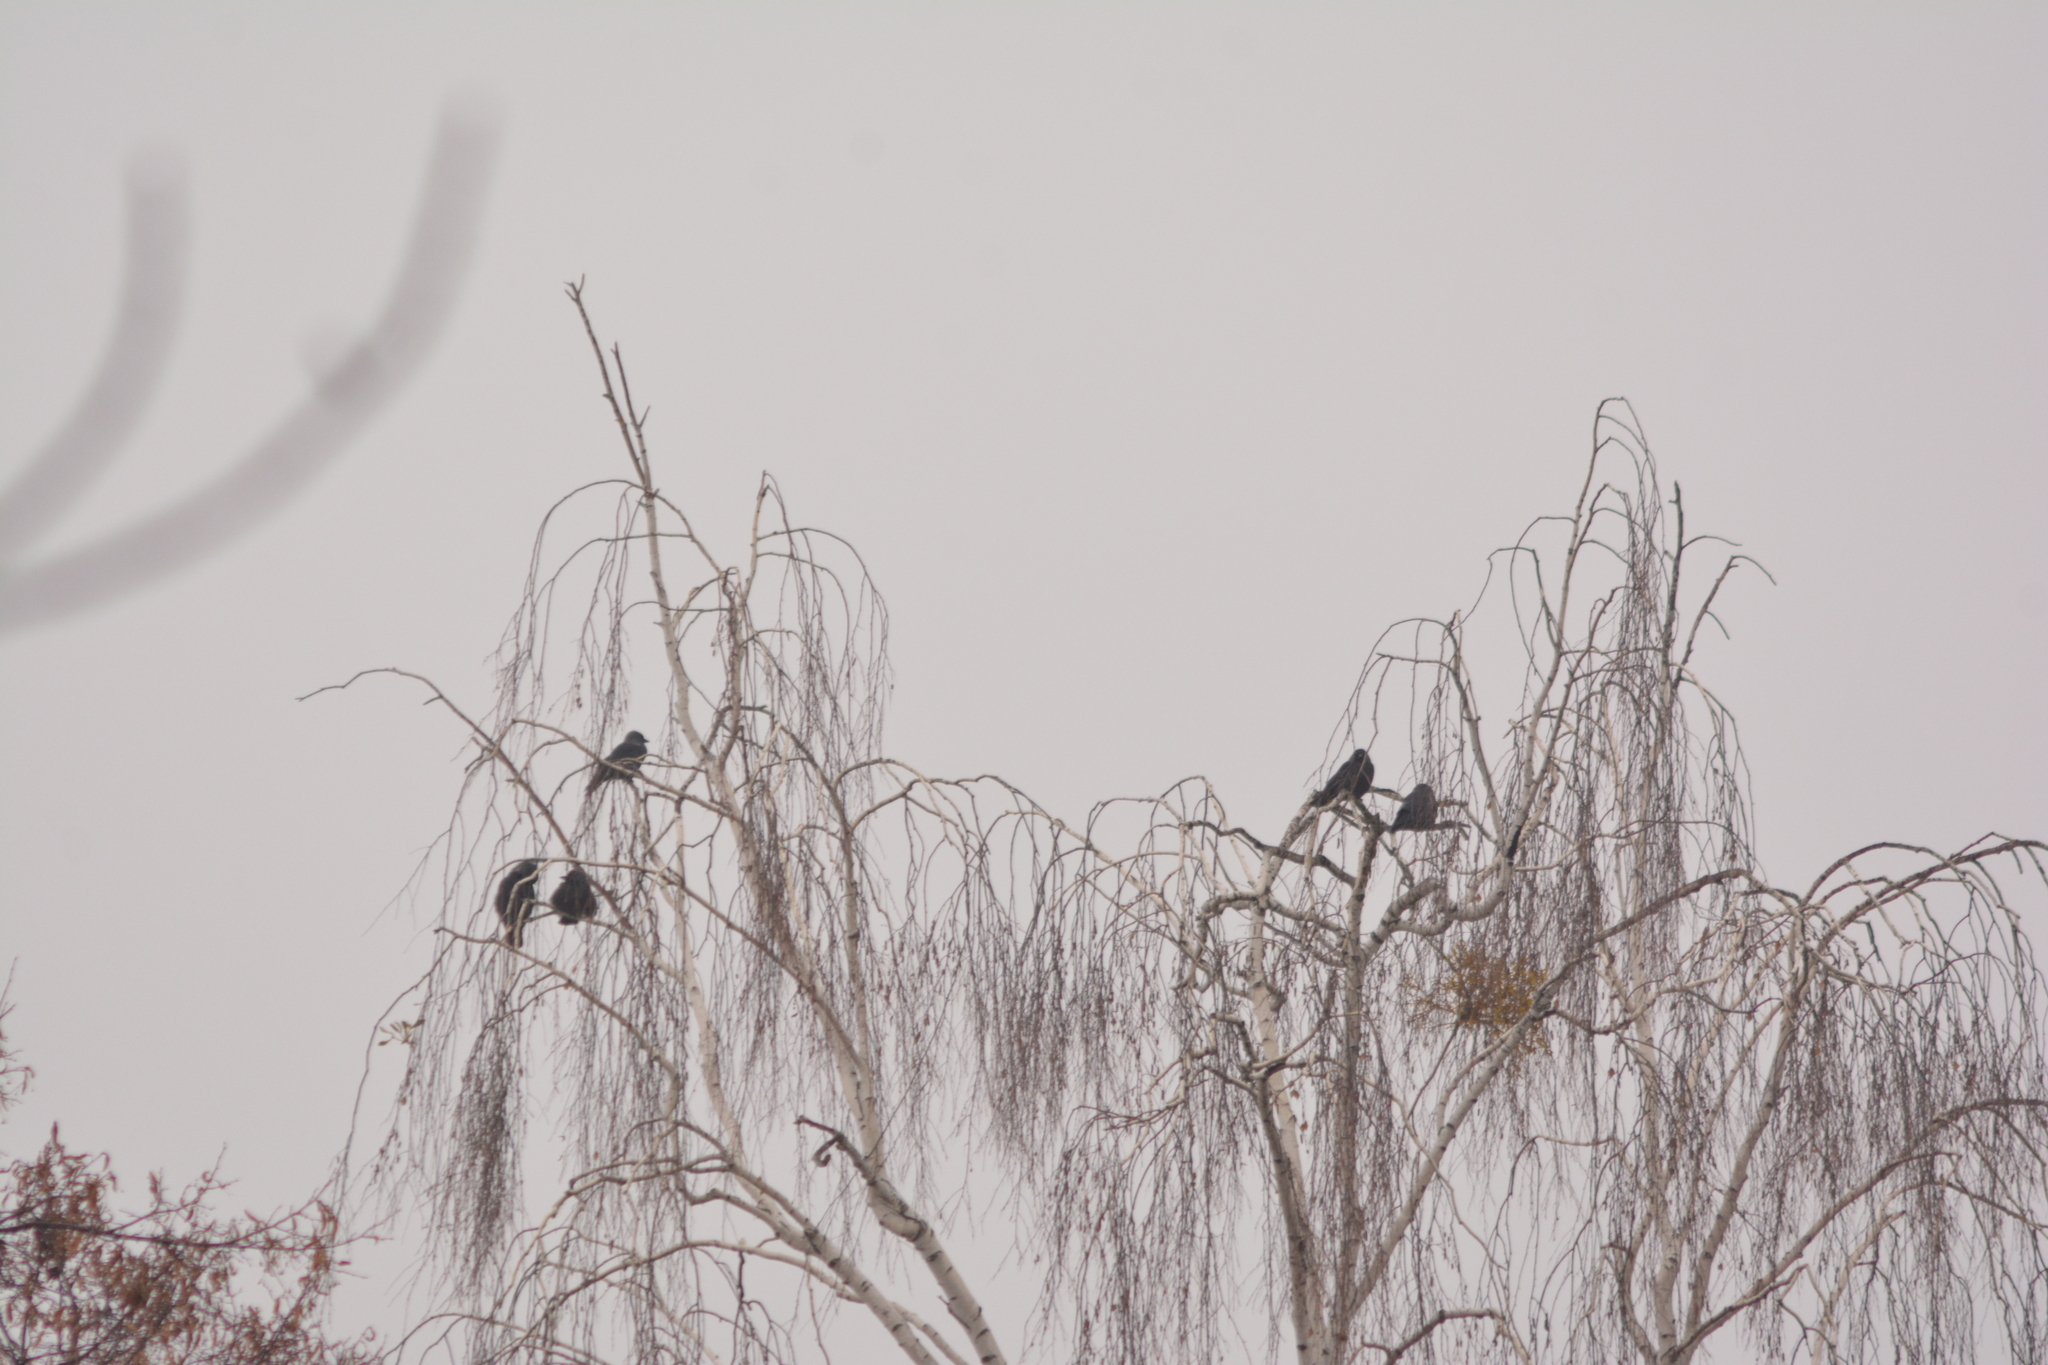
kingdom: Animalia
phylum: Chordata
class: Aves
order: Passeriformes
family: Corvidae
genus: Coloeus
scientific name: Coloeus monedula
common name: Western jackdaw
